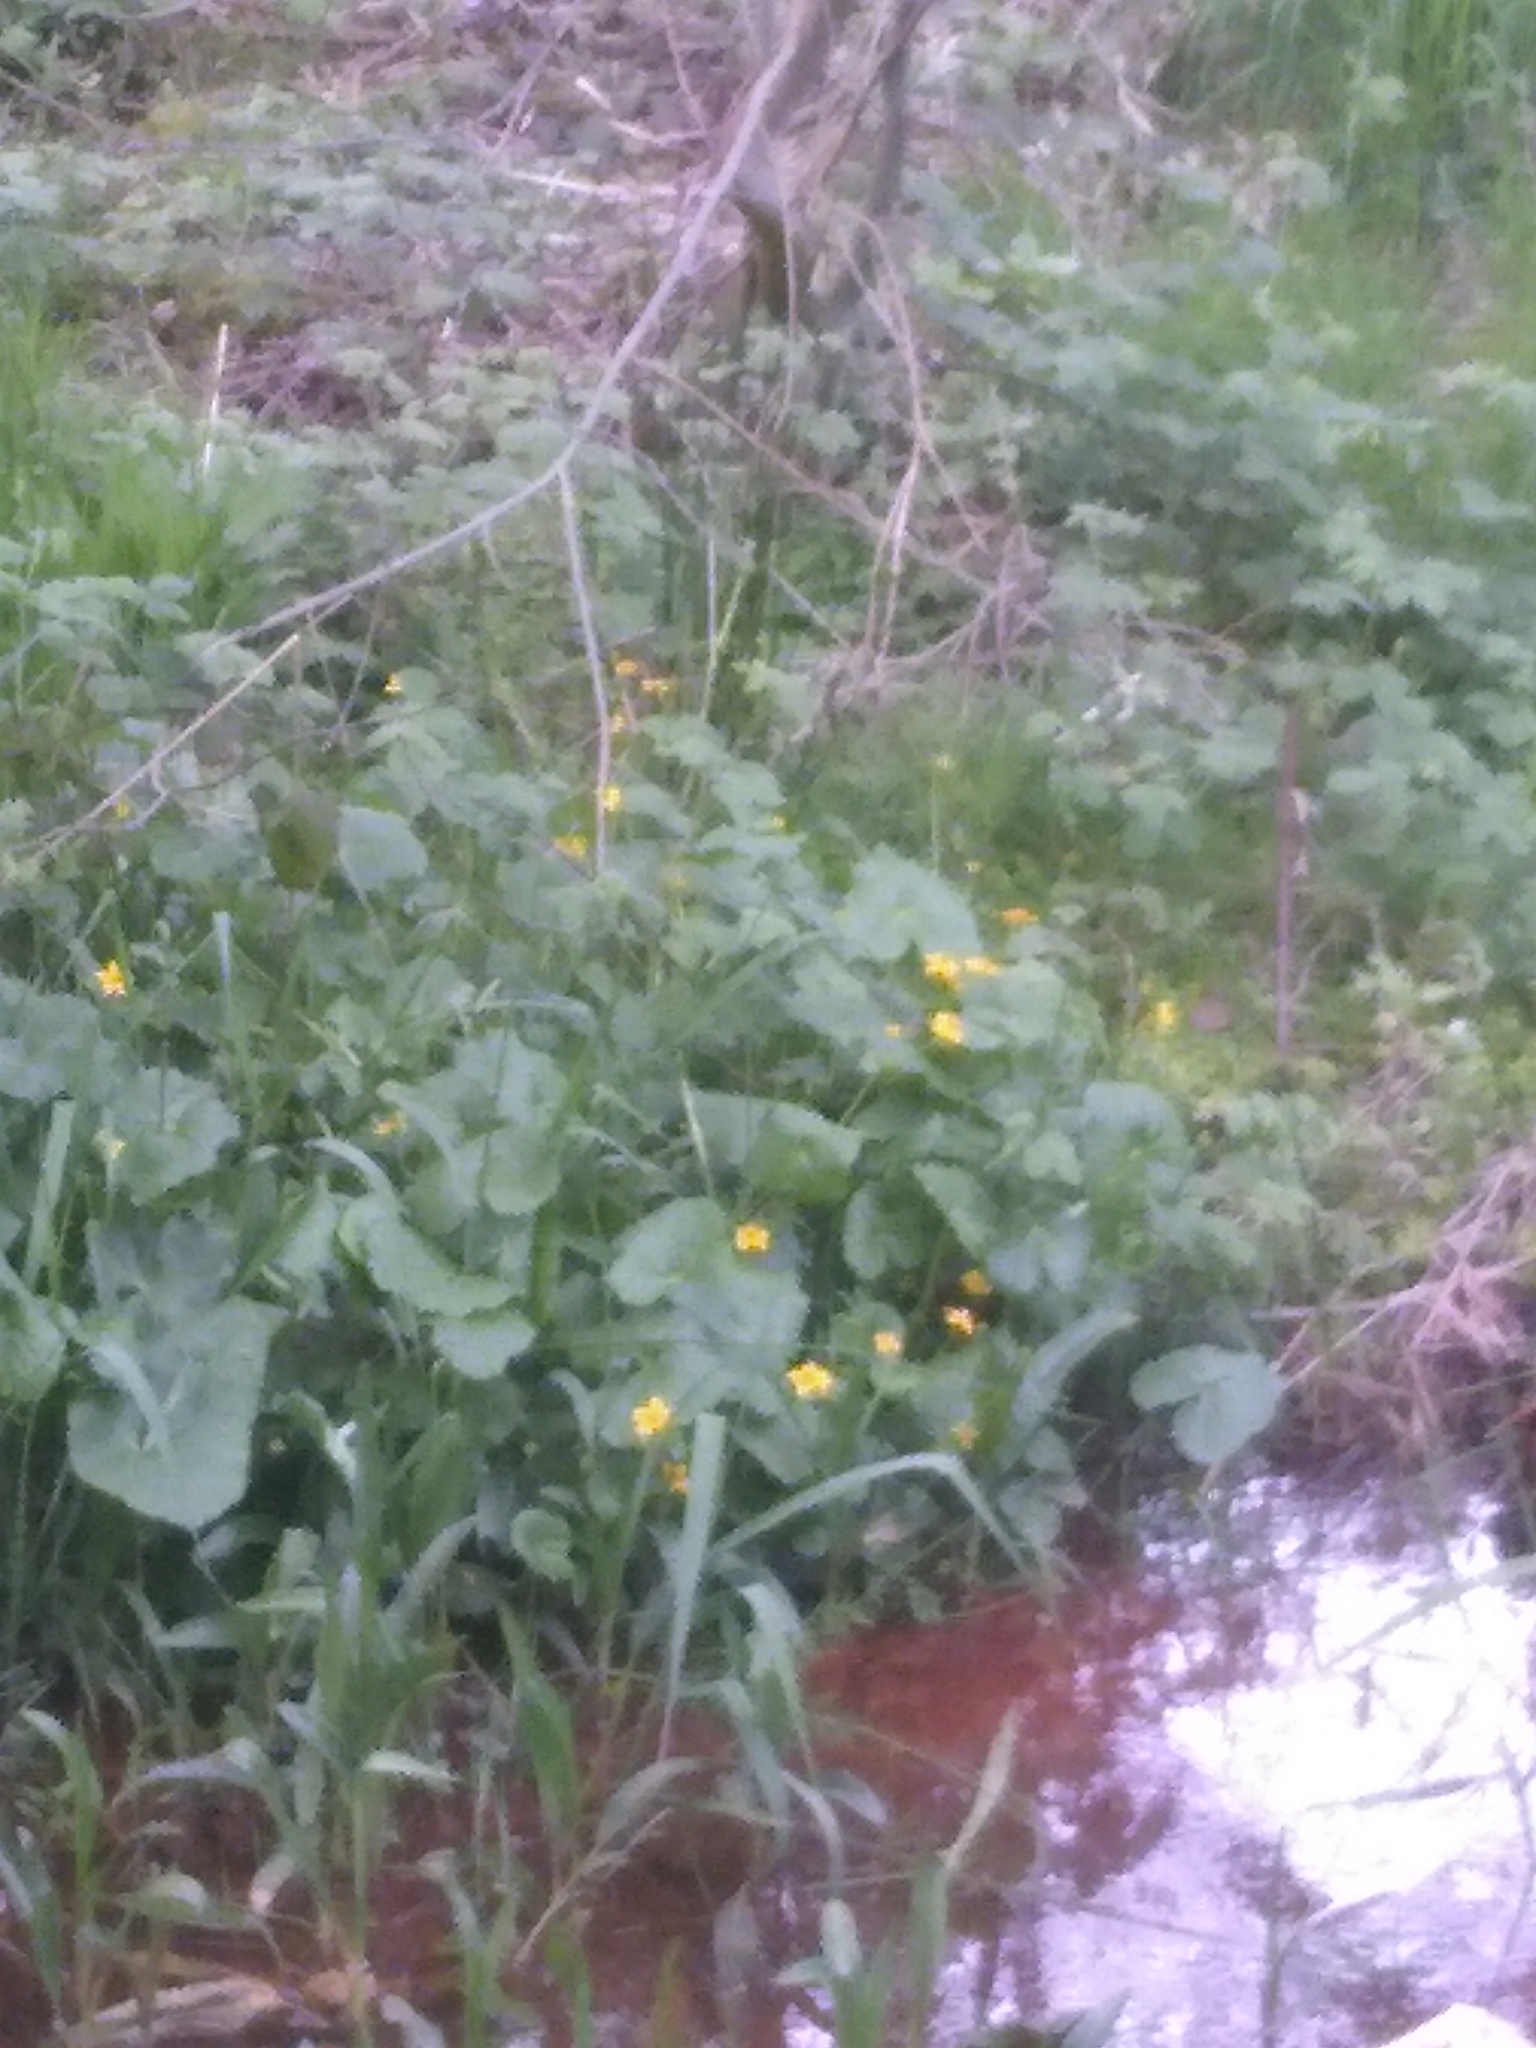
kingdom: Plantae
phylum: Tracheophyta
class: Magnoliopsida
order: Ranunculales
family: Ranunculaceae
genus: Caltha
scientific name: Caltha palustris
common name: Marsh marigold
